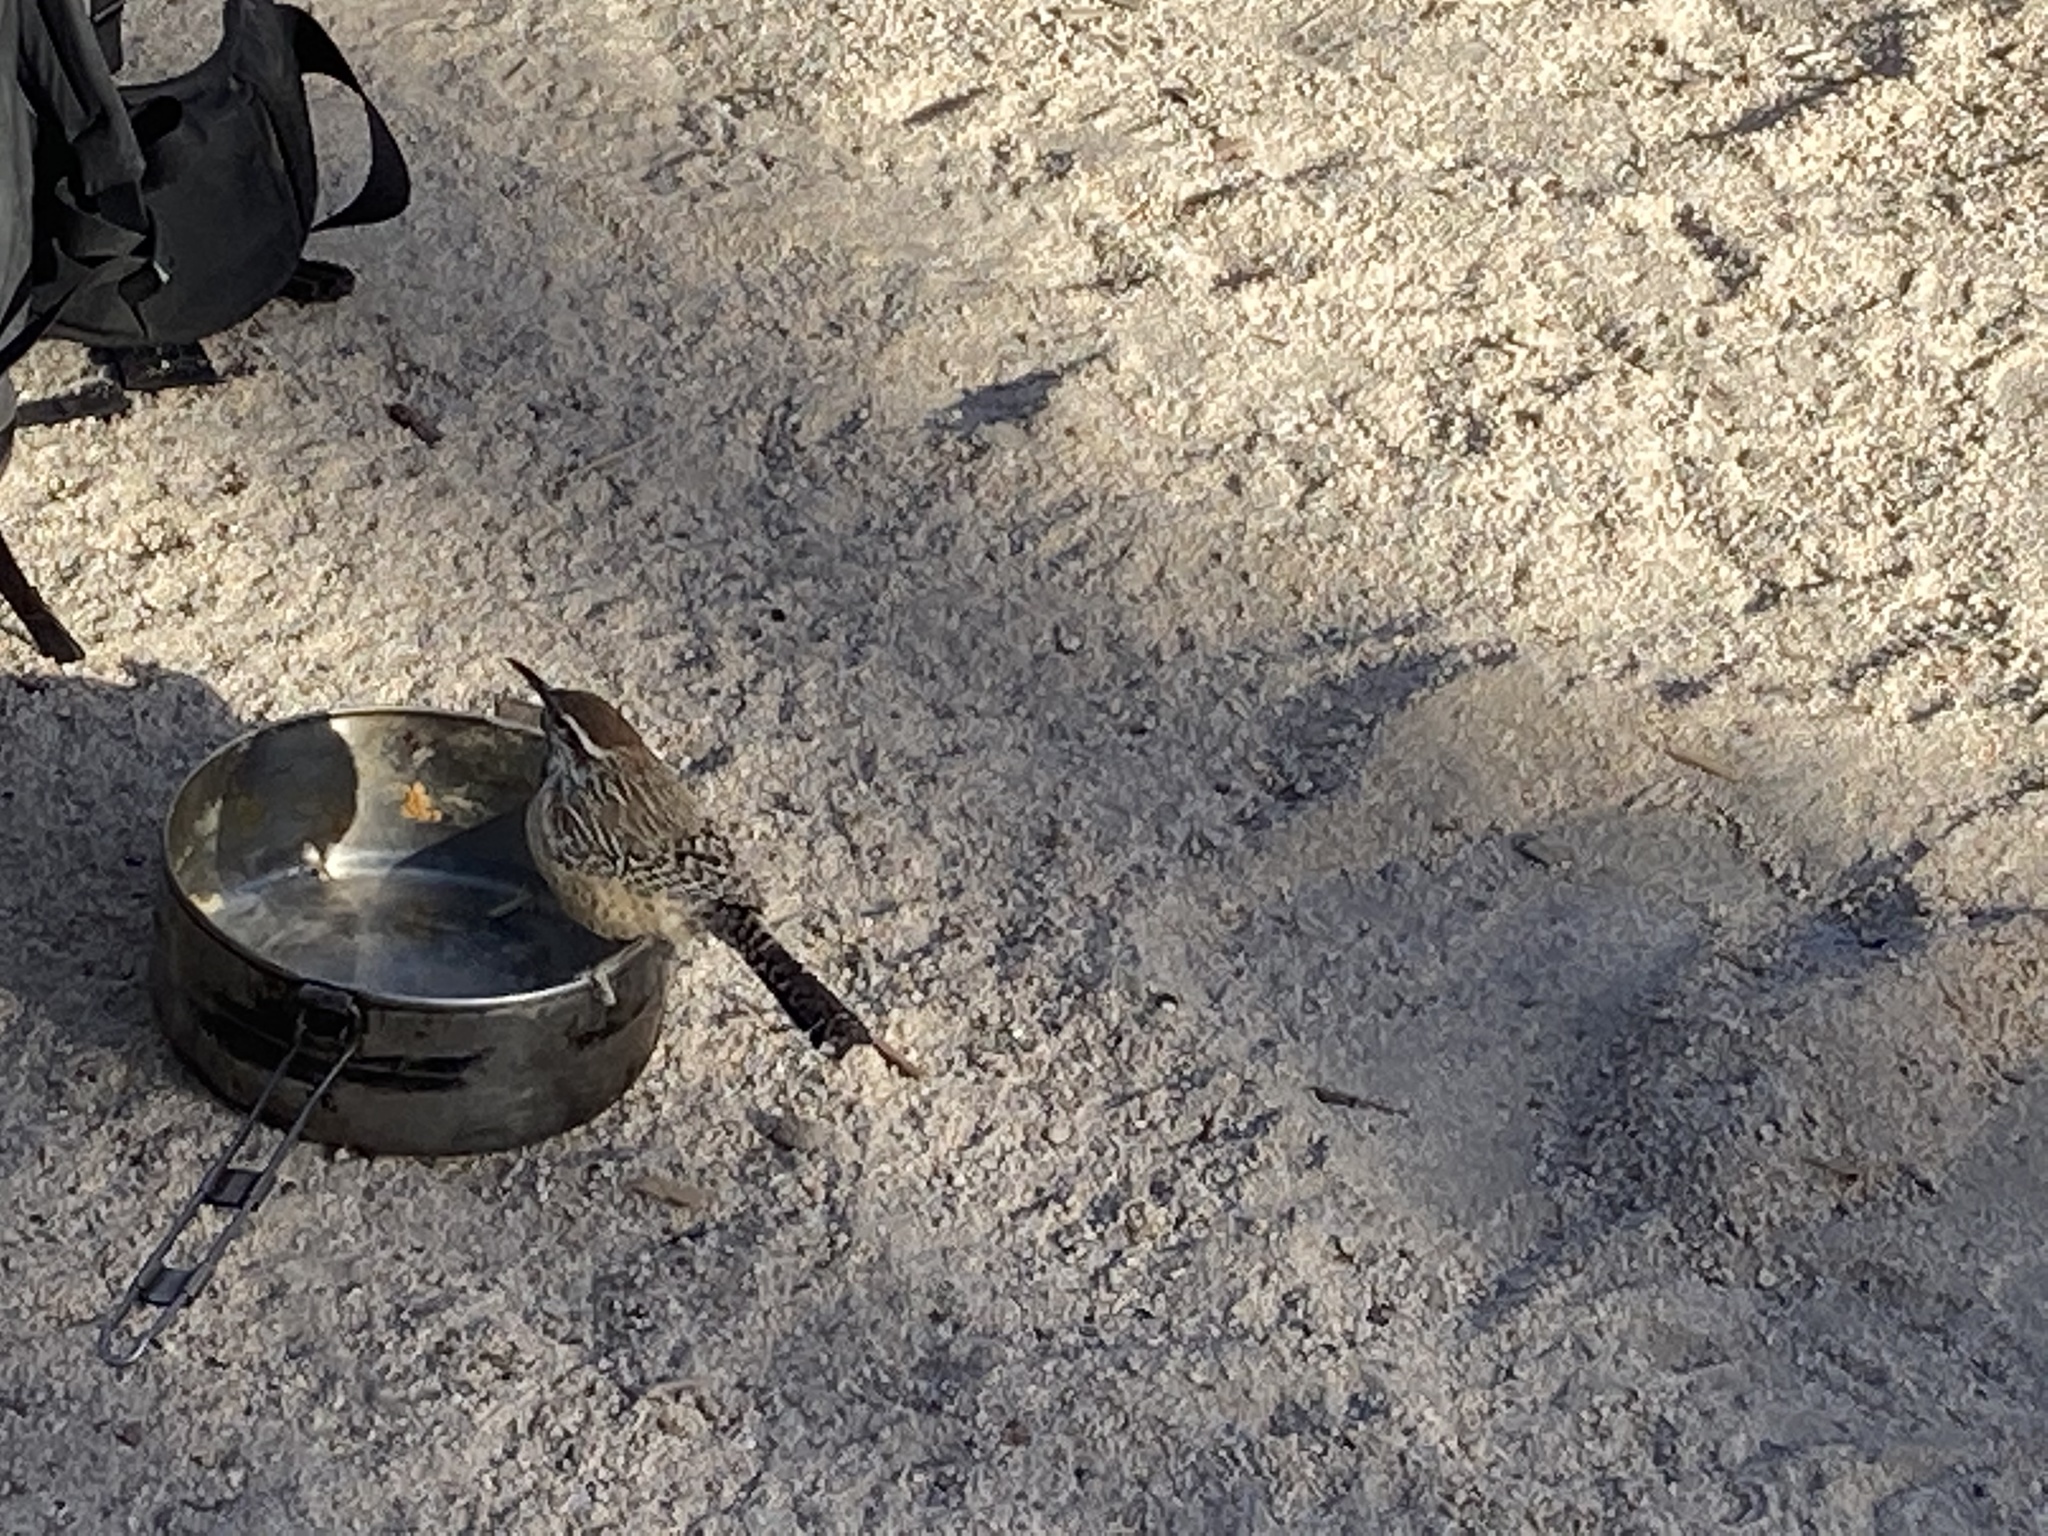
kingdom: Animalia
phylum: Chordata
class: Aves
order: Passeriformes
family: Troglodytidae
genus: Campylorhynchus
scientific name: Campylorhynchus brunneicapillus
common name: Cactus wren
